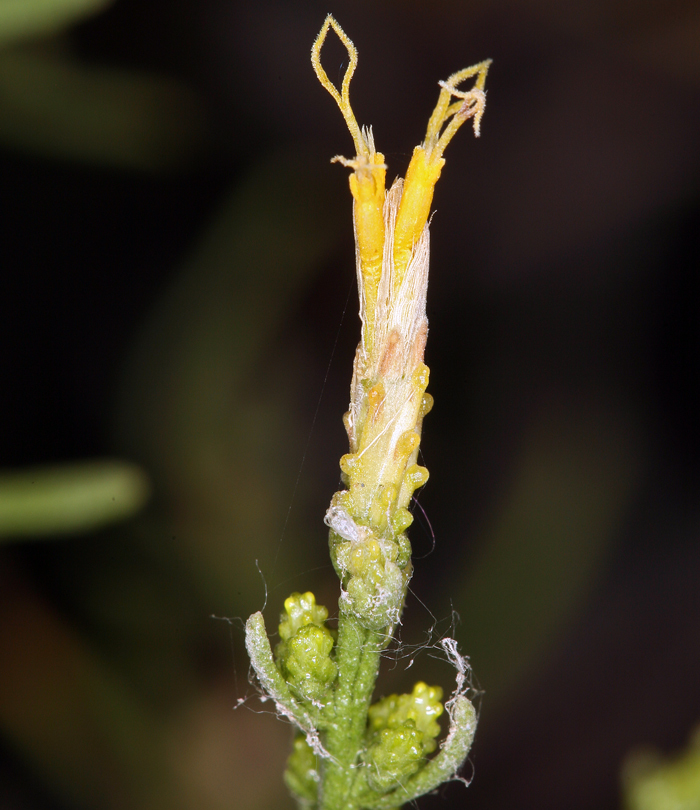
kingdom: Plantae
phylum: Tracheophyta
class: Magnoliopsida
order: Asterales
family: Asteraceae
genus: Ericameria
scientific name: Ericameria teretifolia
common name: Round-leaf rabbitbrush
